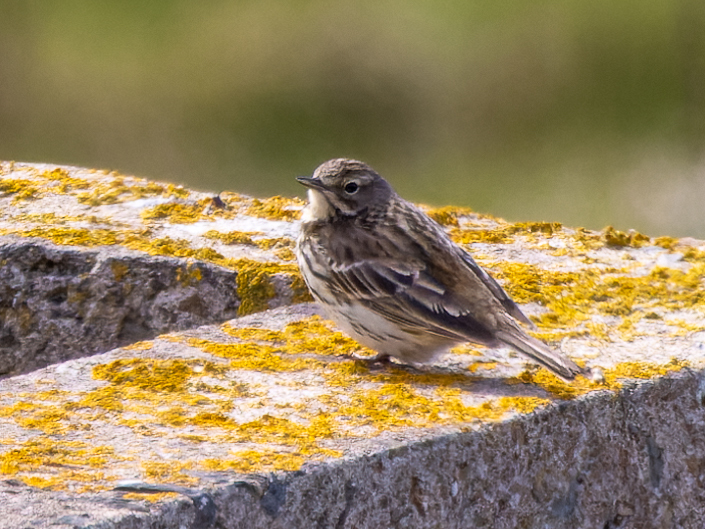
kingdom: Animalia
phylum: Chordata
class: Aves
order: Passeriformes
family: Motacillidae
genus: Anthus
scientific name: Anthus pratensis
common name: Meadow pipit
